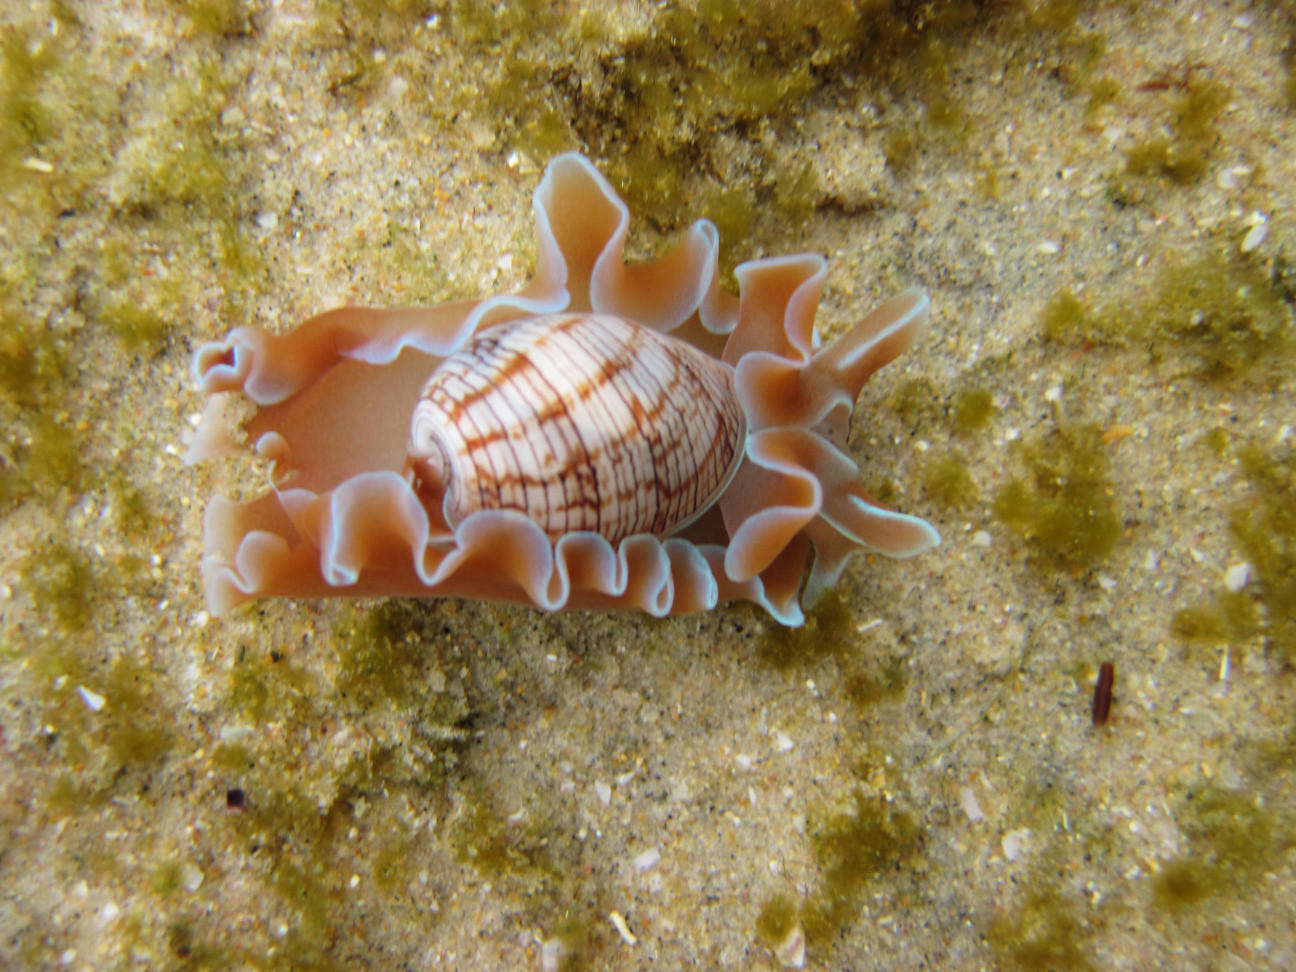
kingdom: Animalia
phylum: Mollusca
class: Gastropoda
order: Cephalaspidea
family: Aplustridae
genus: Hydatina
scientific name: Hydatina physis
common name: Brown-line paperbubble
